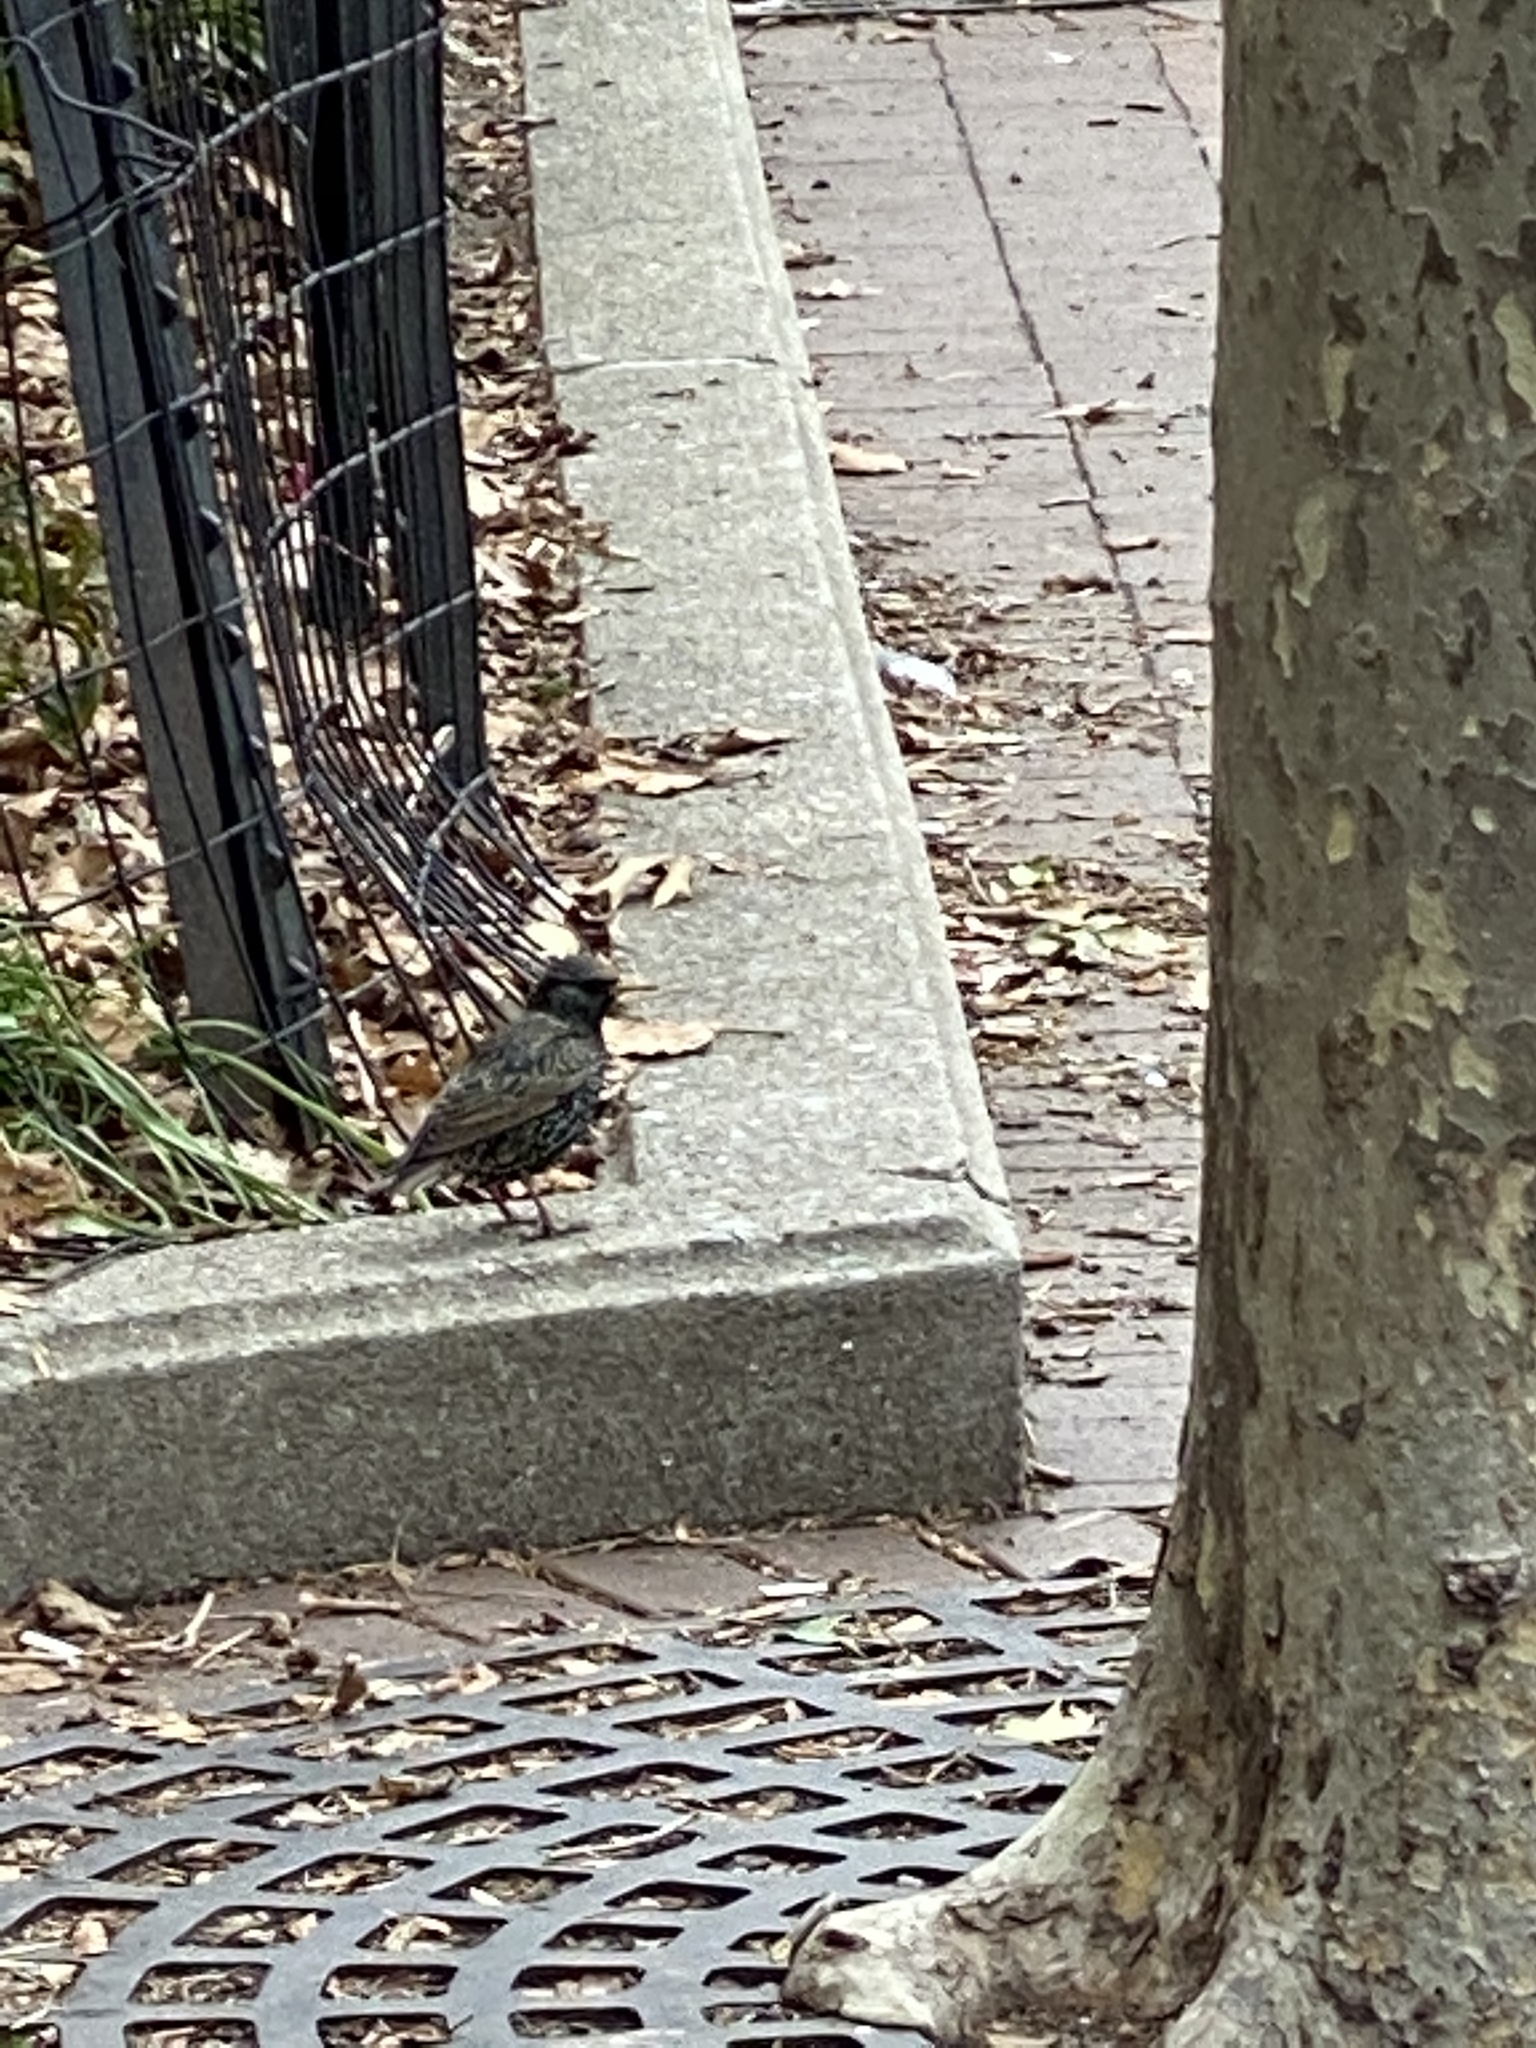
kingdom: Animalia
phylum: Chordata
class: Aves
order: Passeriformes
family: Sturnidae
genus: Sturnus
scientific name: Sturnus vulgaris
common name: Common starling
